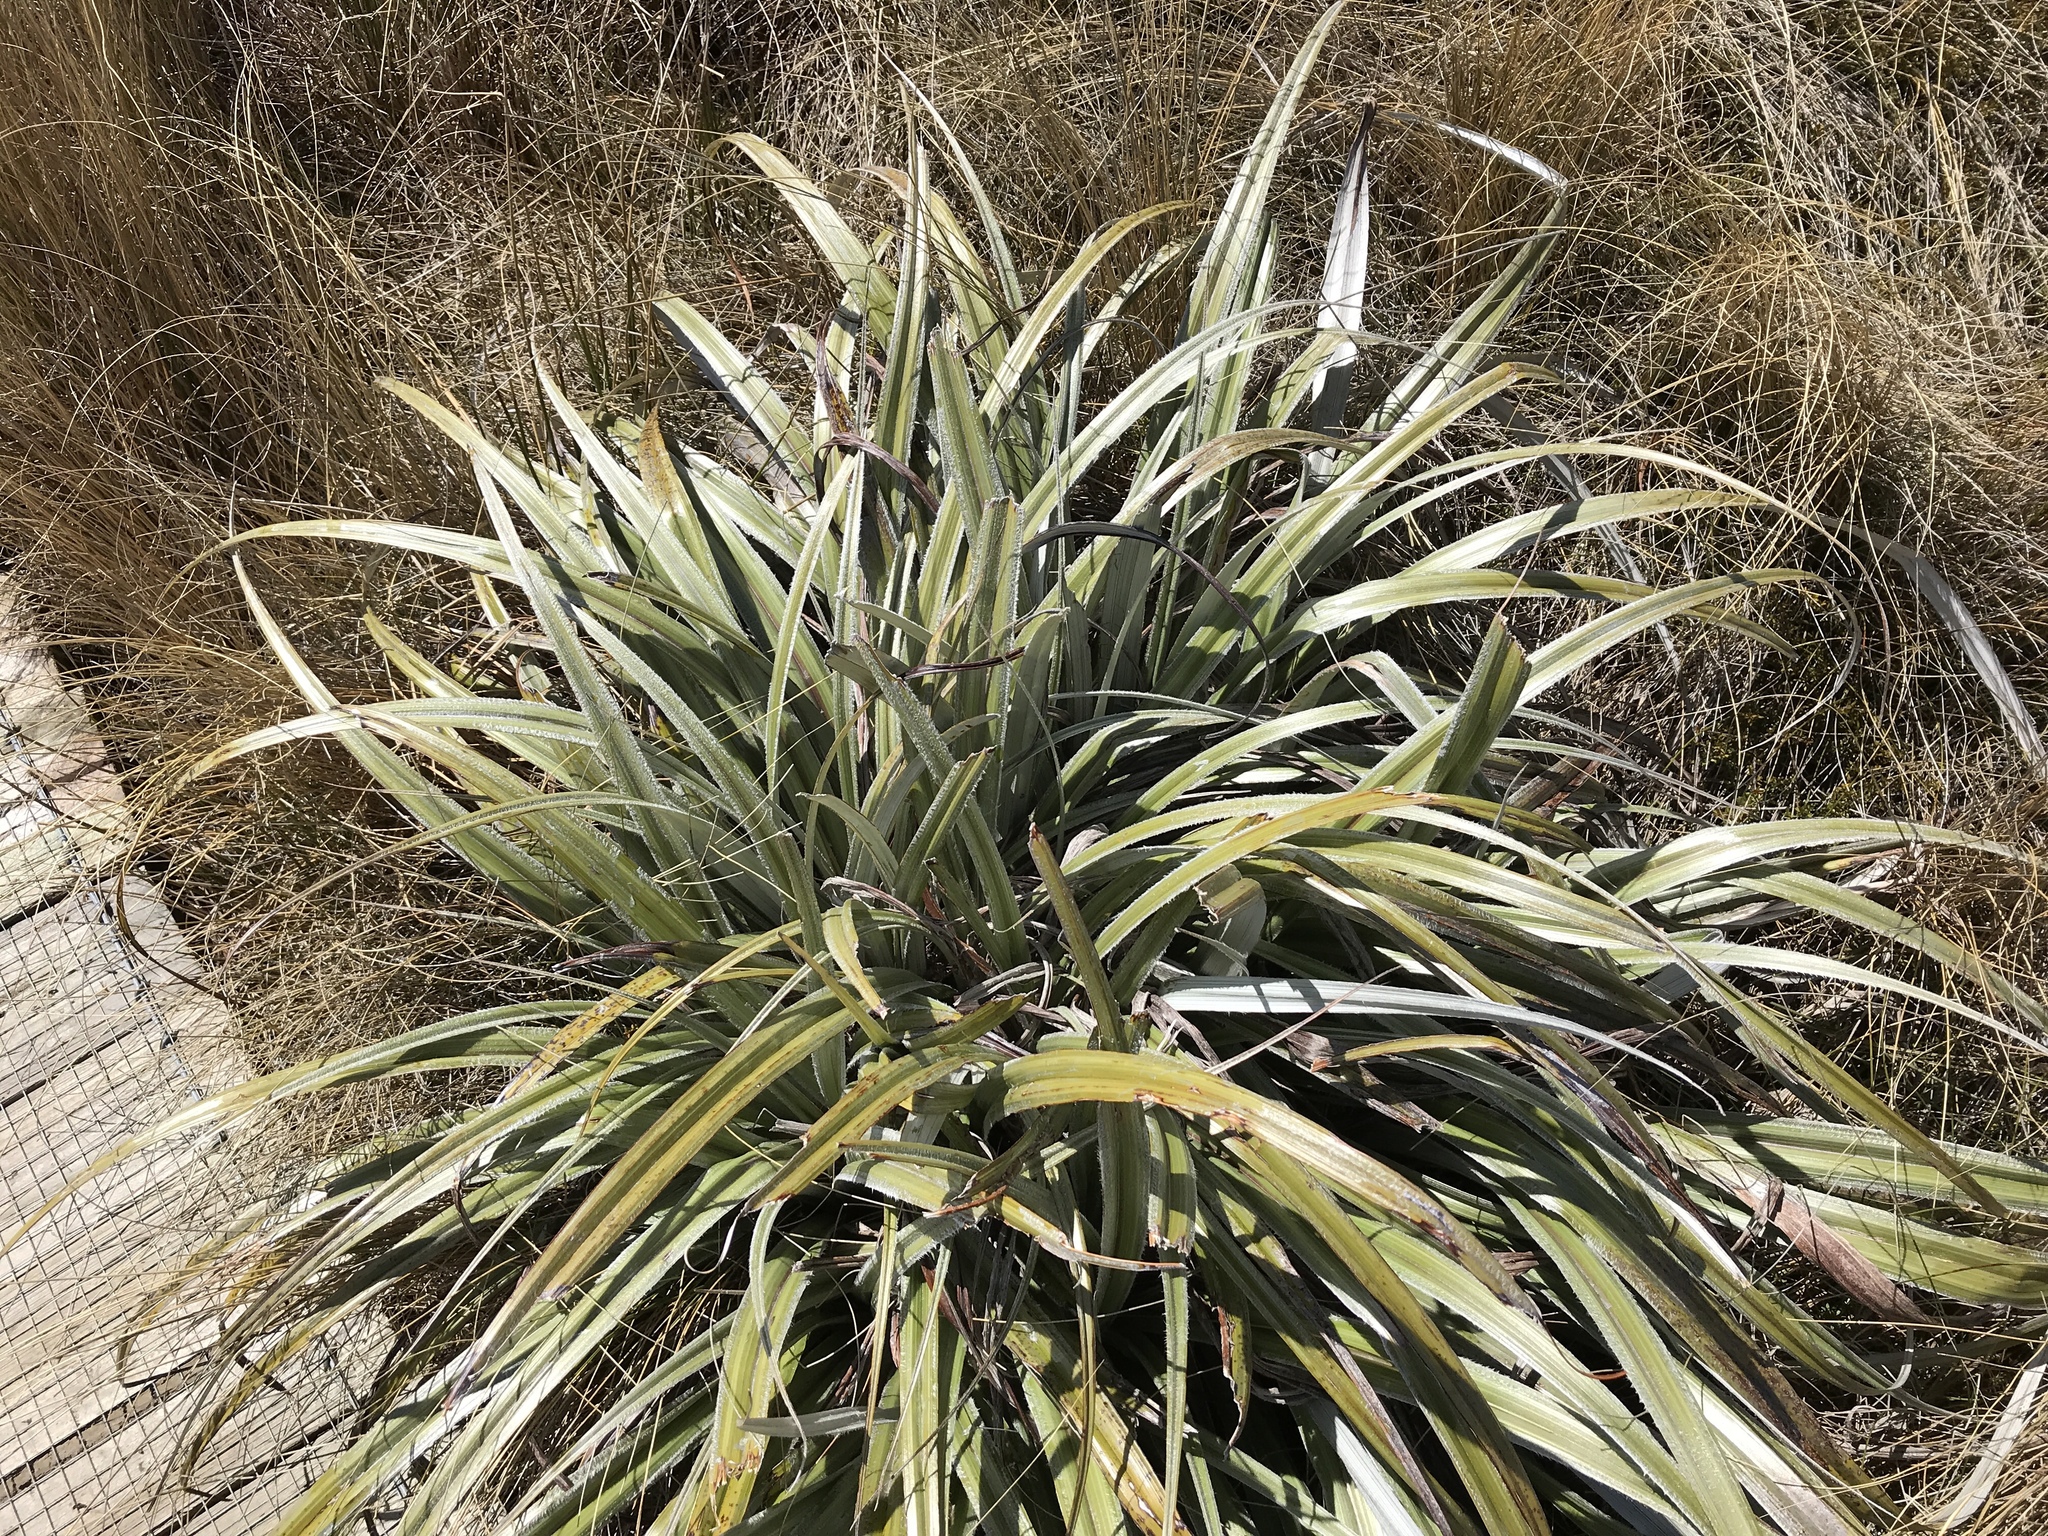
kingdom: Plantae
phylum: Tracheophyta
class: Liliopsida
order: Asparagales
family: Asteliaceae
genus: Astelia
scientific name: Astelia nervosa
